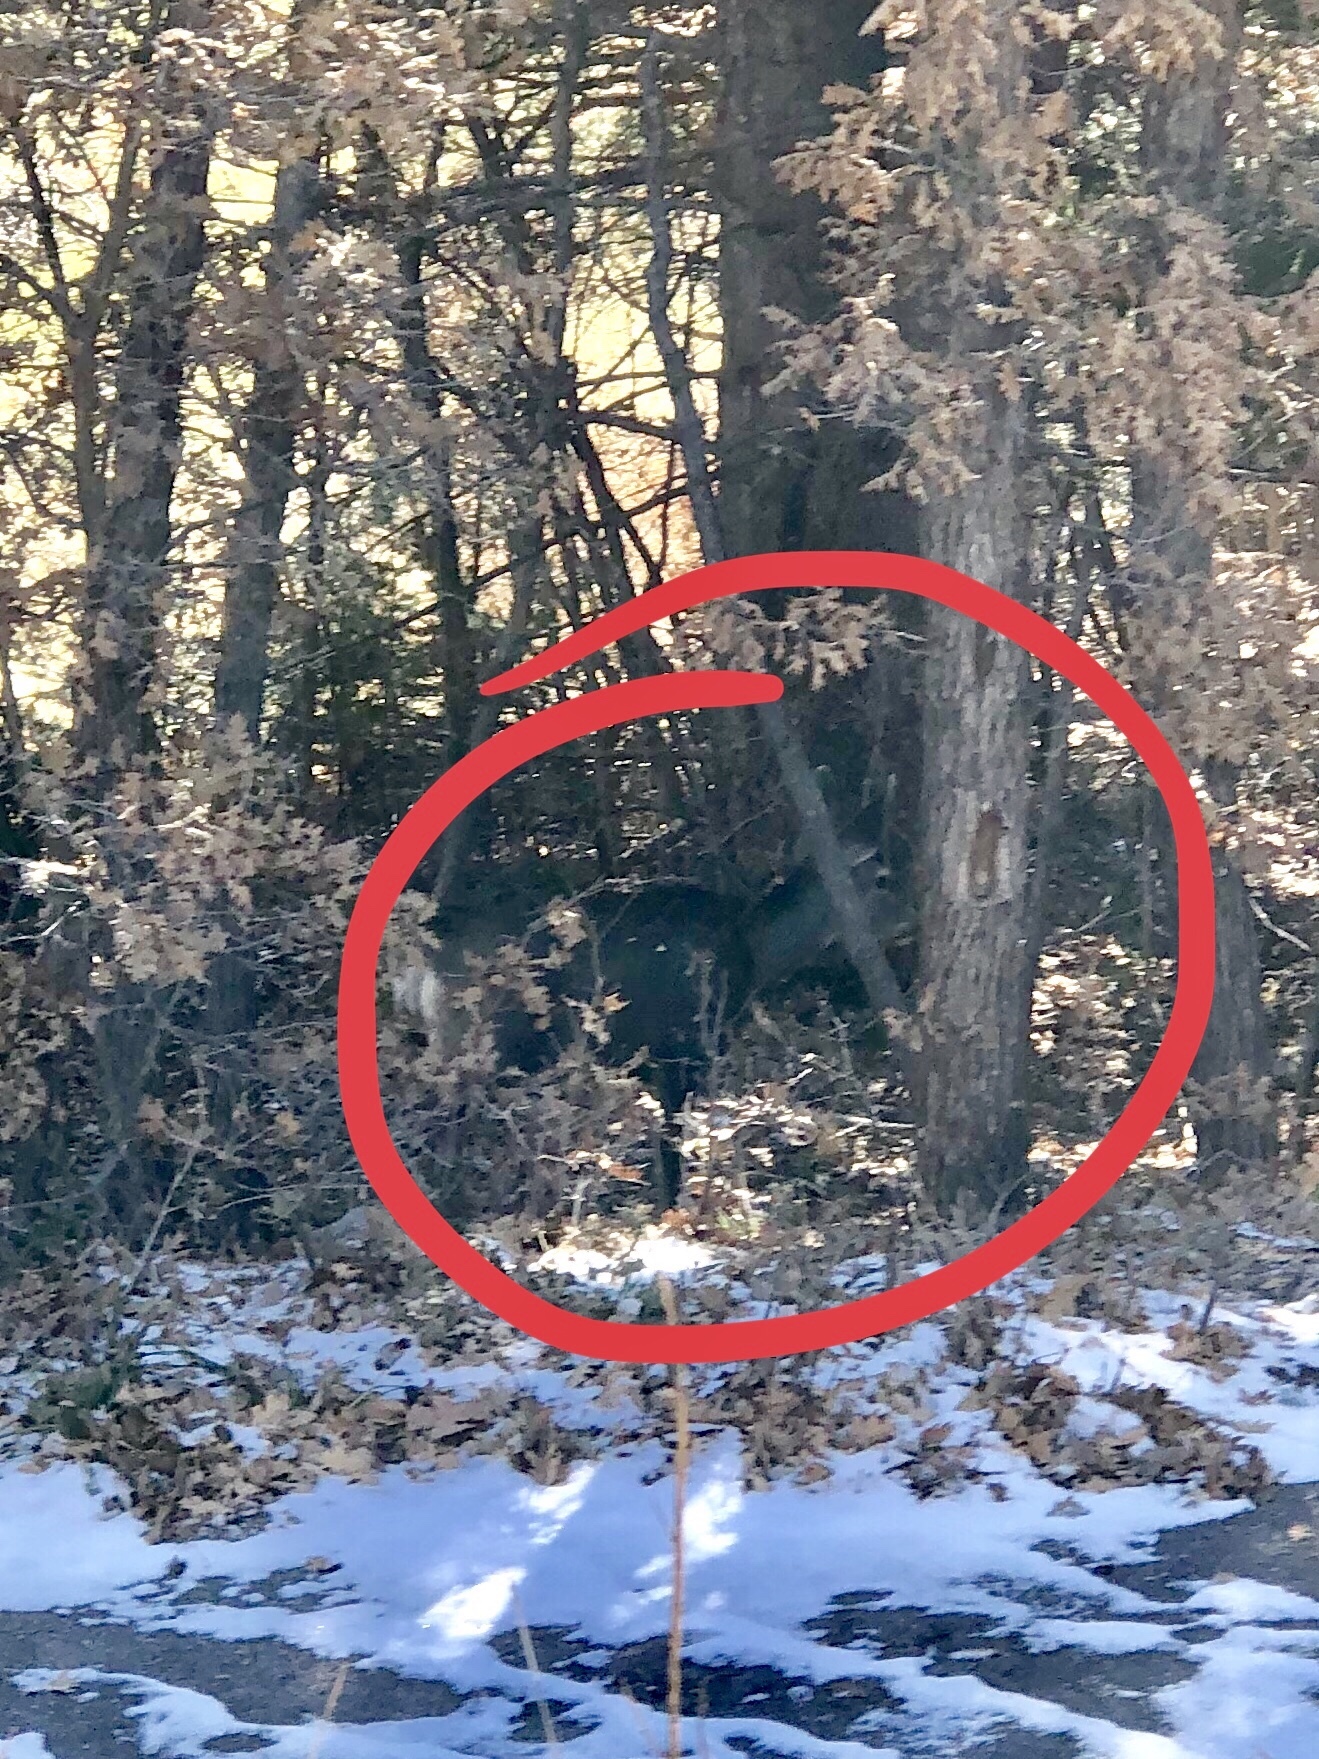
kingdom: Animalia
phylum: Chordata
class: Mammalia
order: Artiodactyla
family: Cervidae
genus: Odocoileus
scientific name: Odocoileus hemionus
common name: Mule deer
